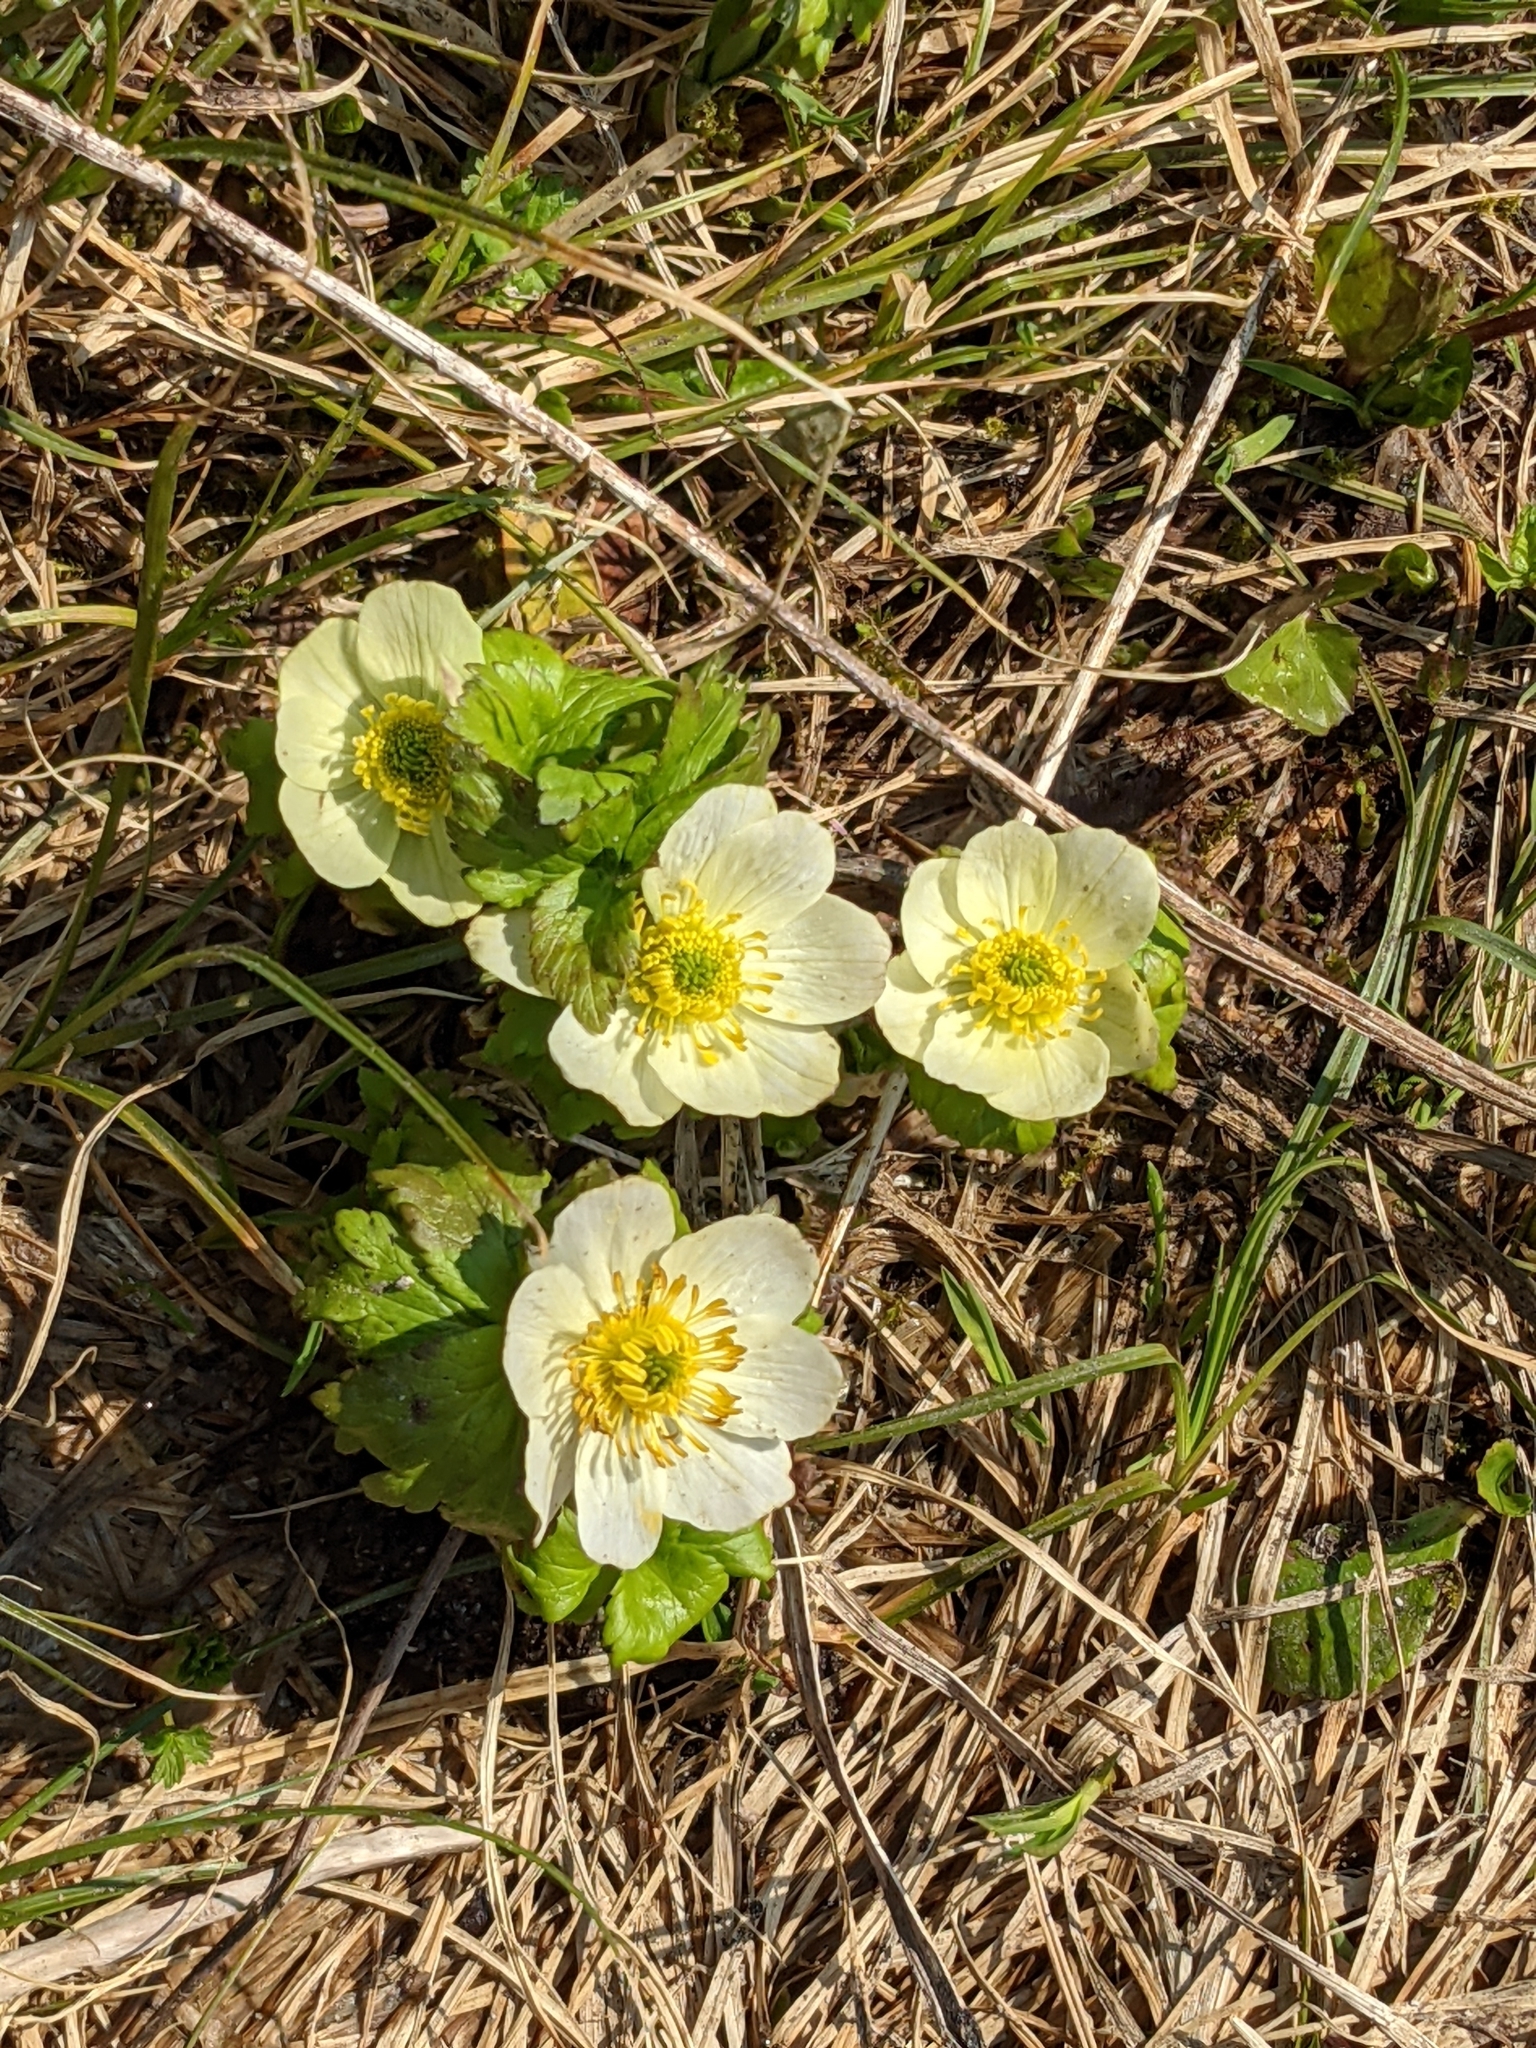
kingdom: Plantae
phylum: Tracheophyta
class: Magnoliopsida
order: Ranunculales
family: Ranunculaceae
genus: Trollius
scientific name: Trollius laxus
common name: American globeflower
